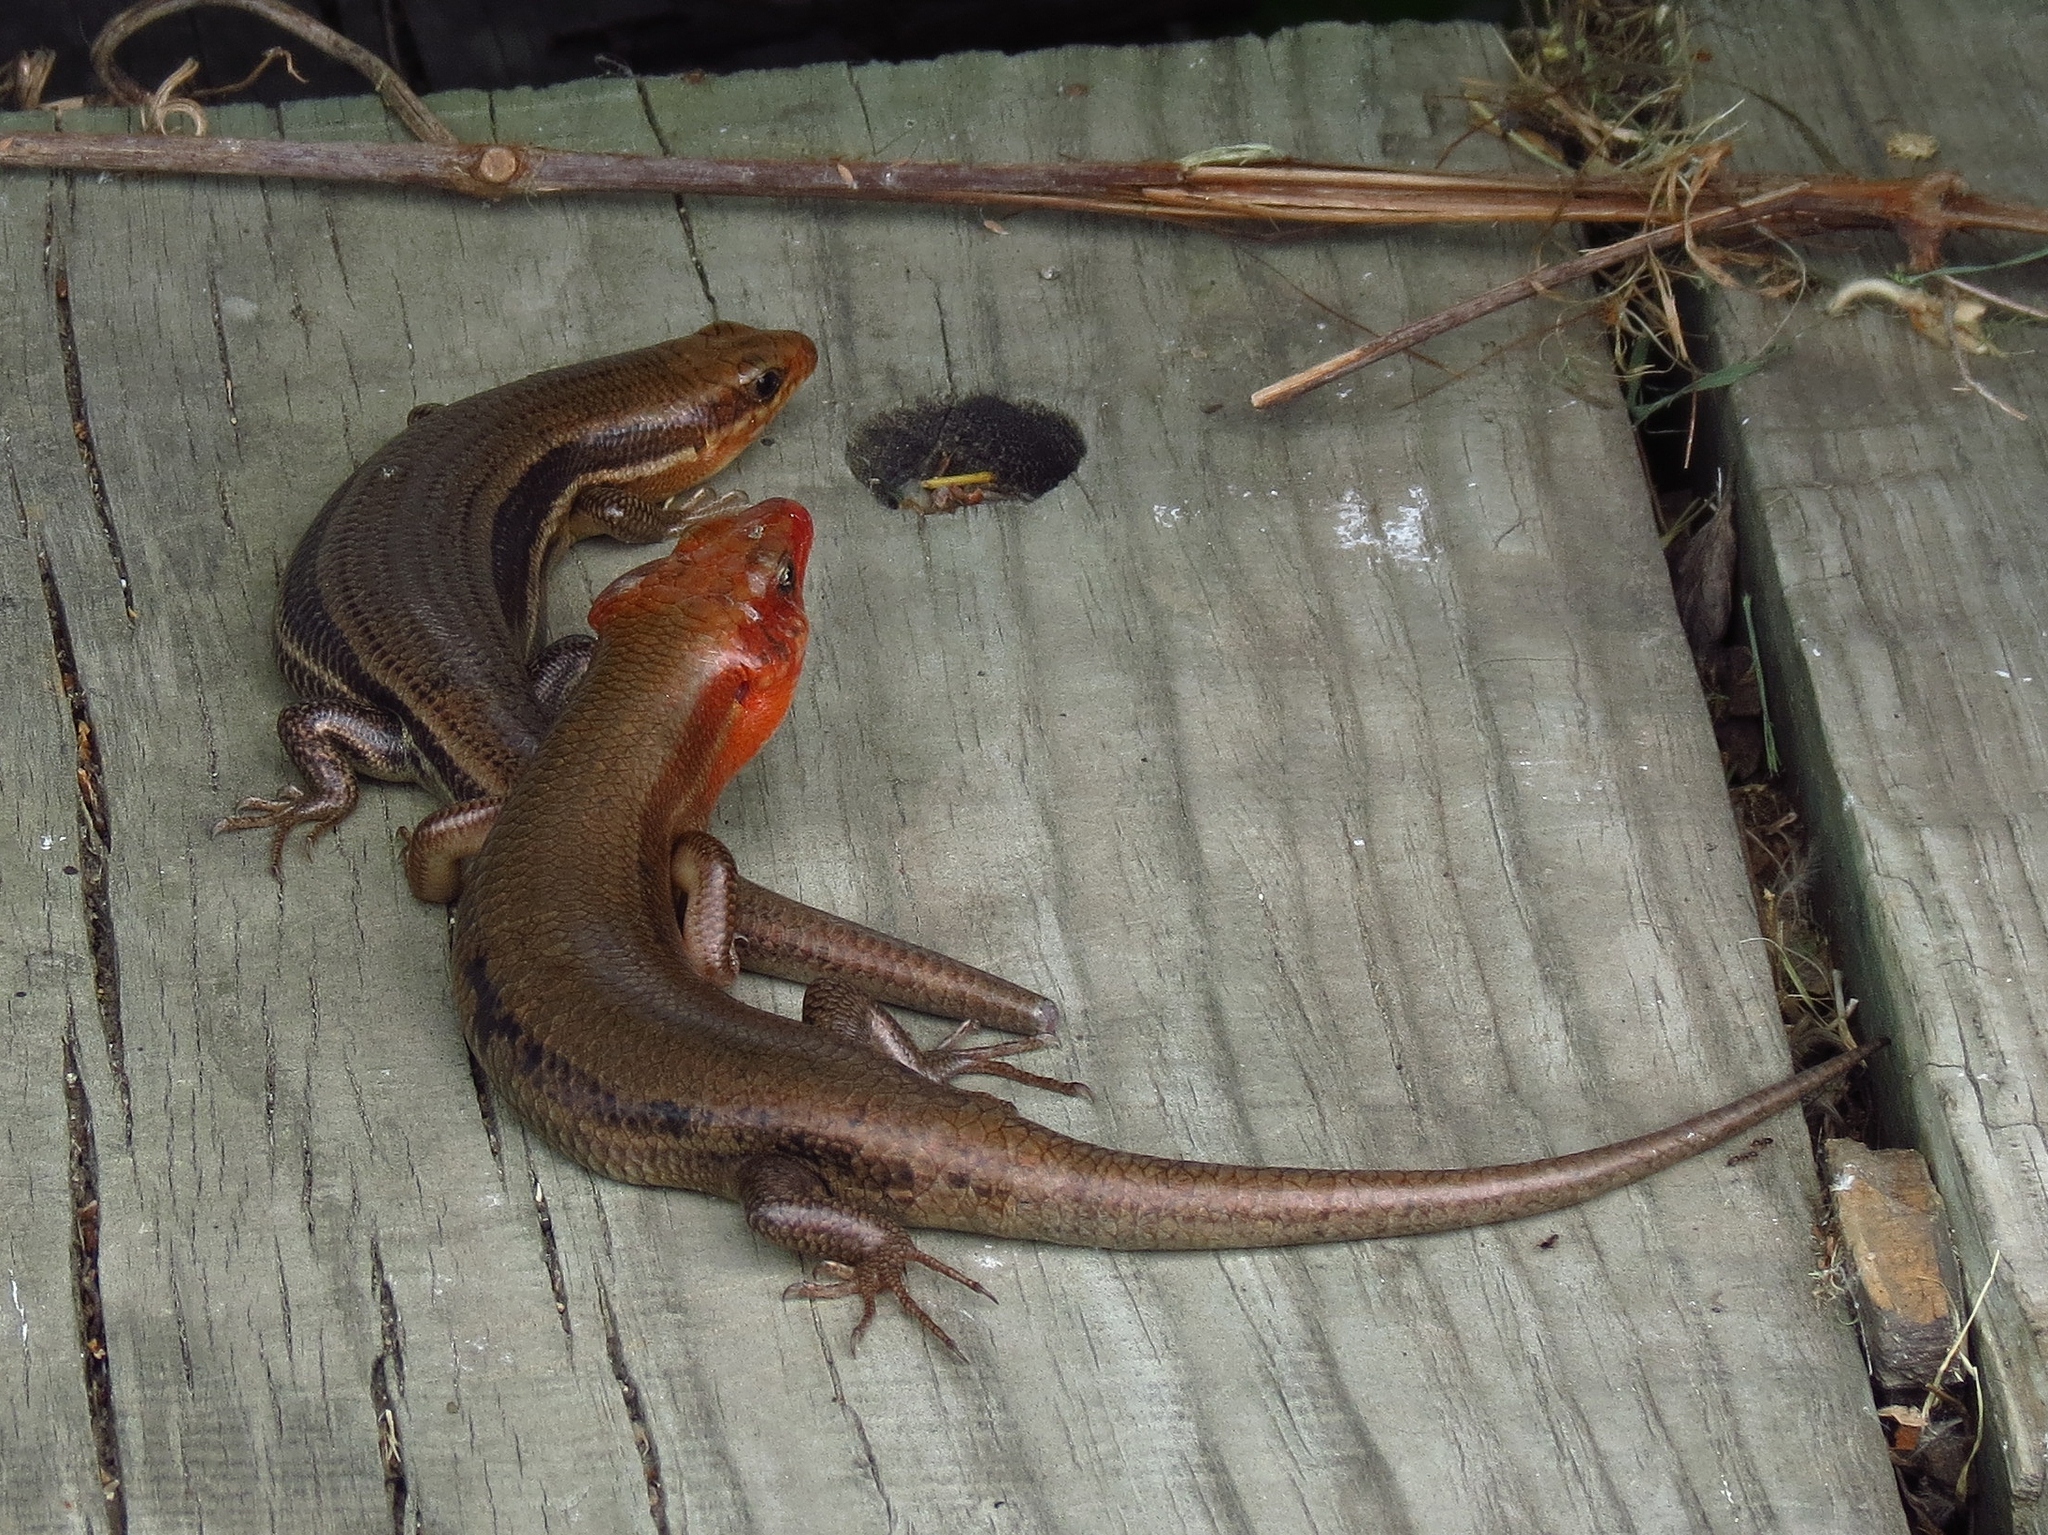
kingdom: Animalia
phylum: Chordata
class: Squamata
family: Scincidae
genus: Plestiodon
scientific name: Plestiodon laticeps
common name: Broadhead skink
